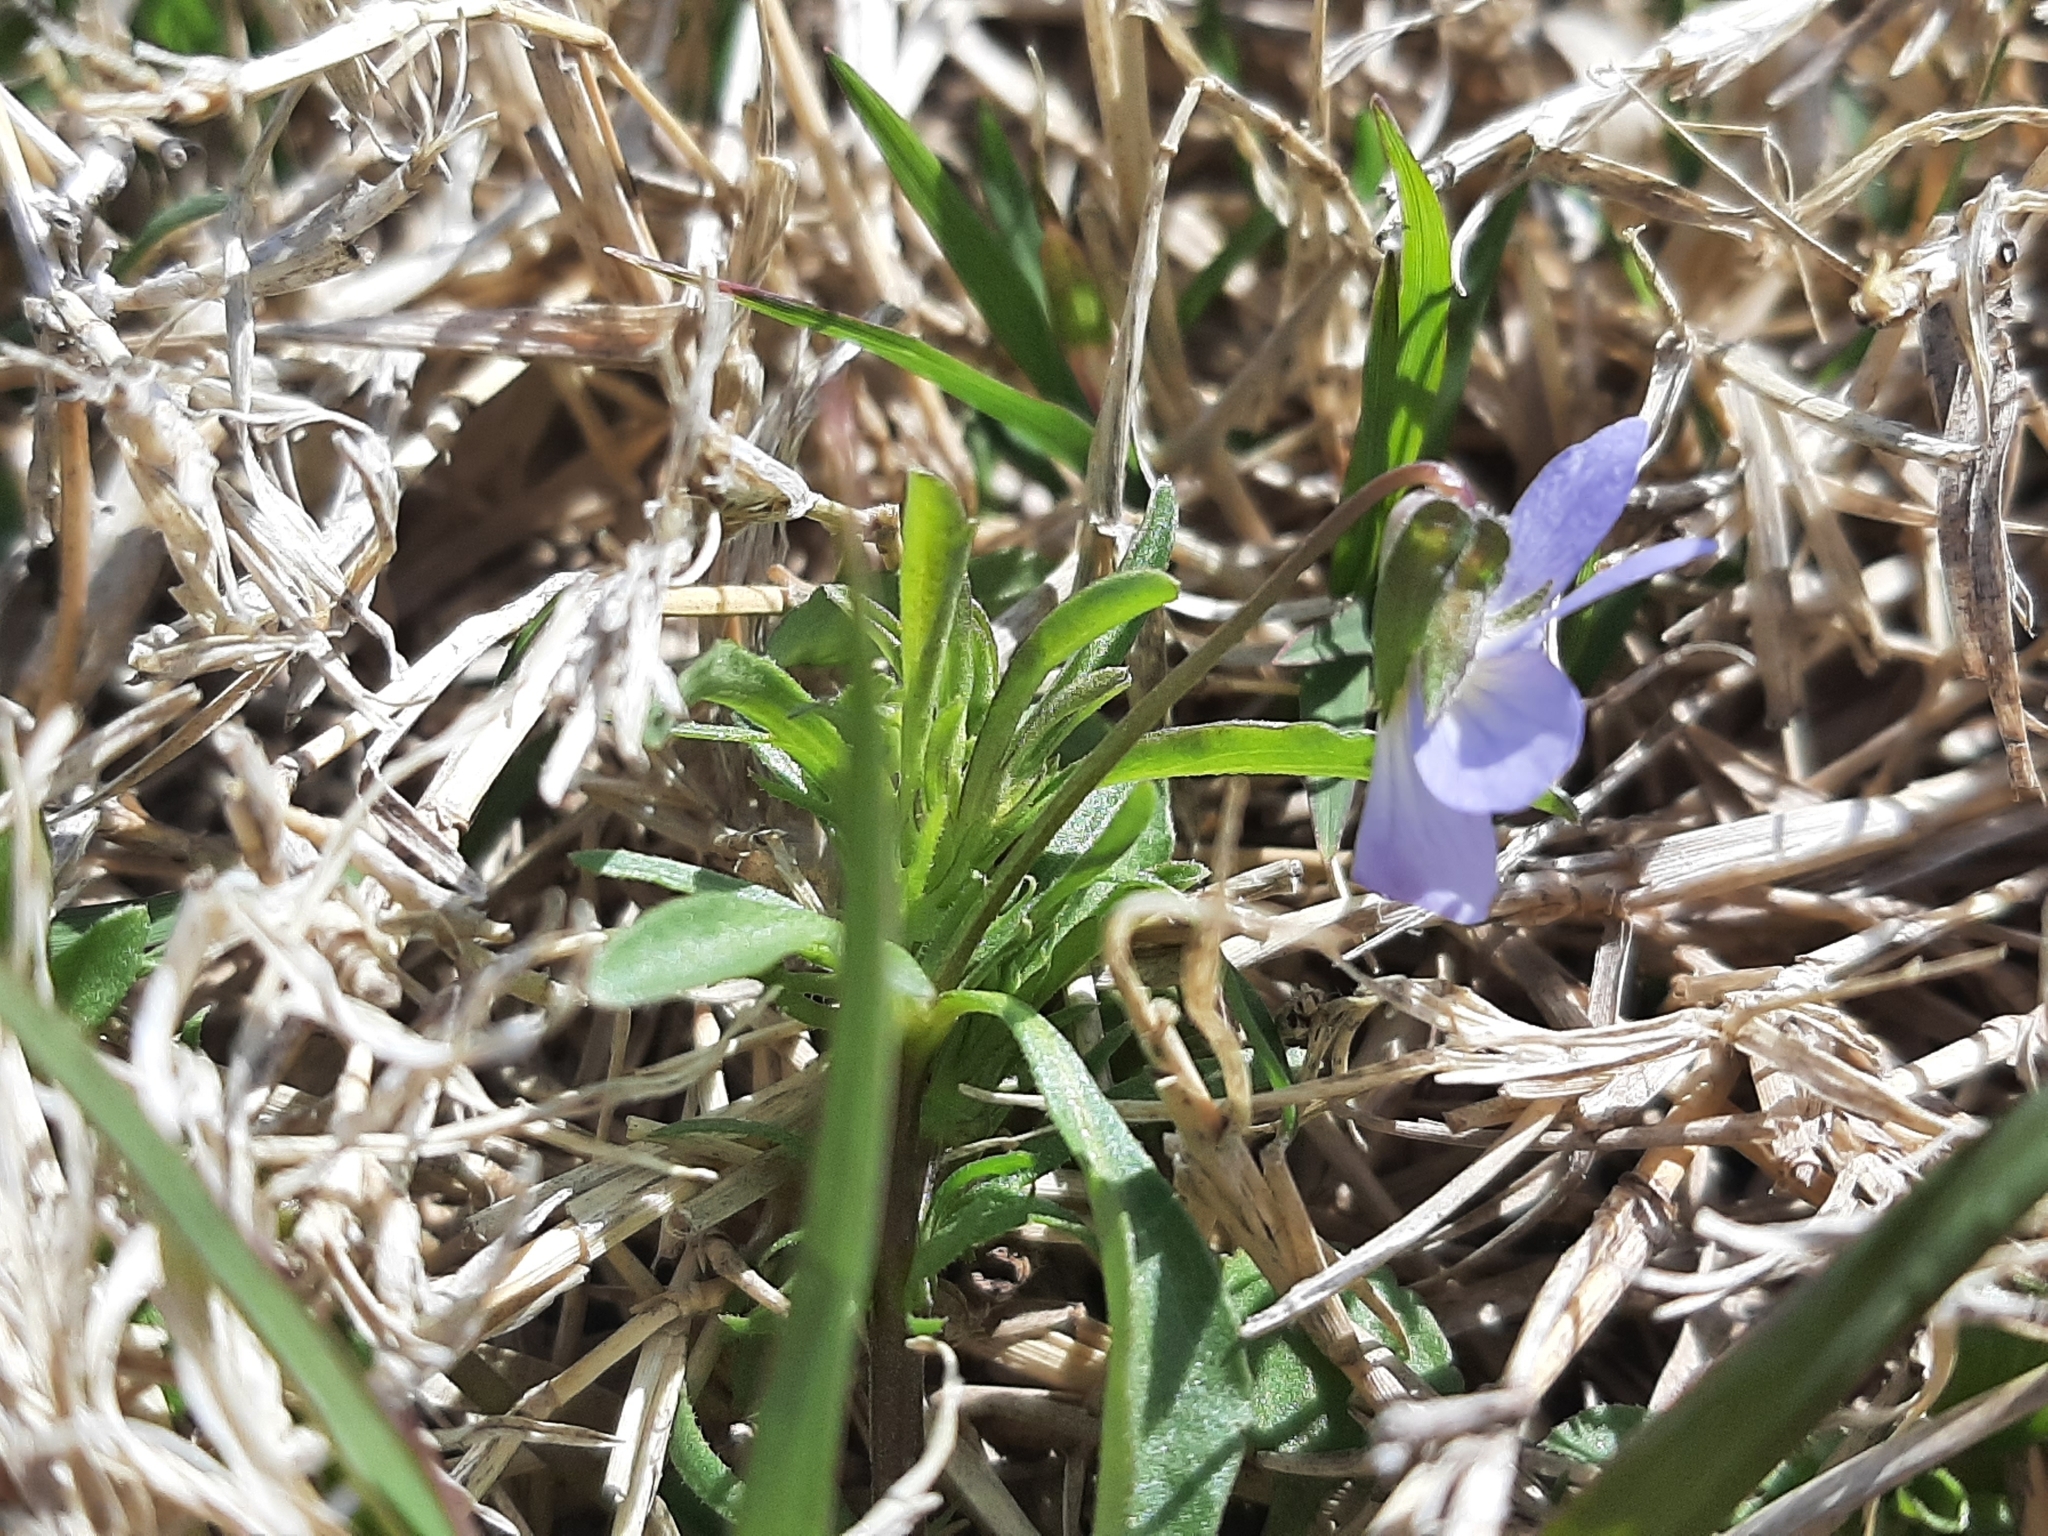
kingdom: Plantae
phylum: Tracheophyta
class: Magnoliopsida
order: Malpighiales
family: Violaceae
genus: Viola
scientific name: Viola rafinesquei
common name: American field pansy
